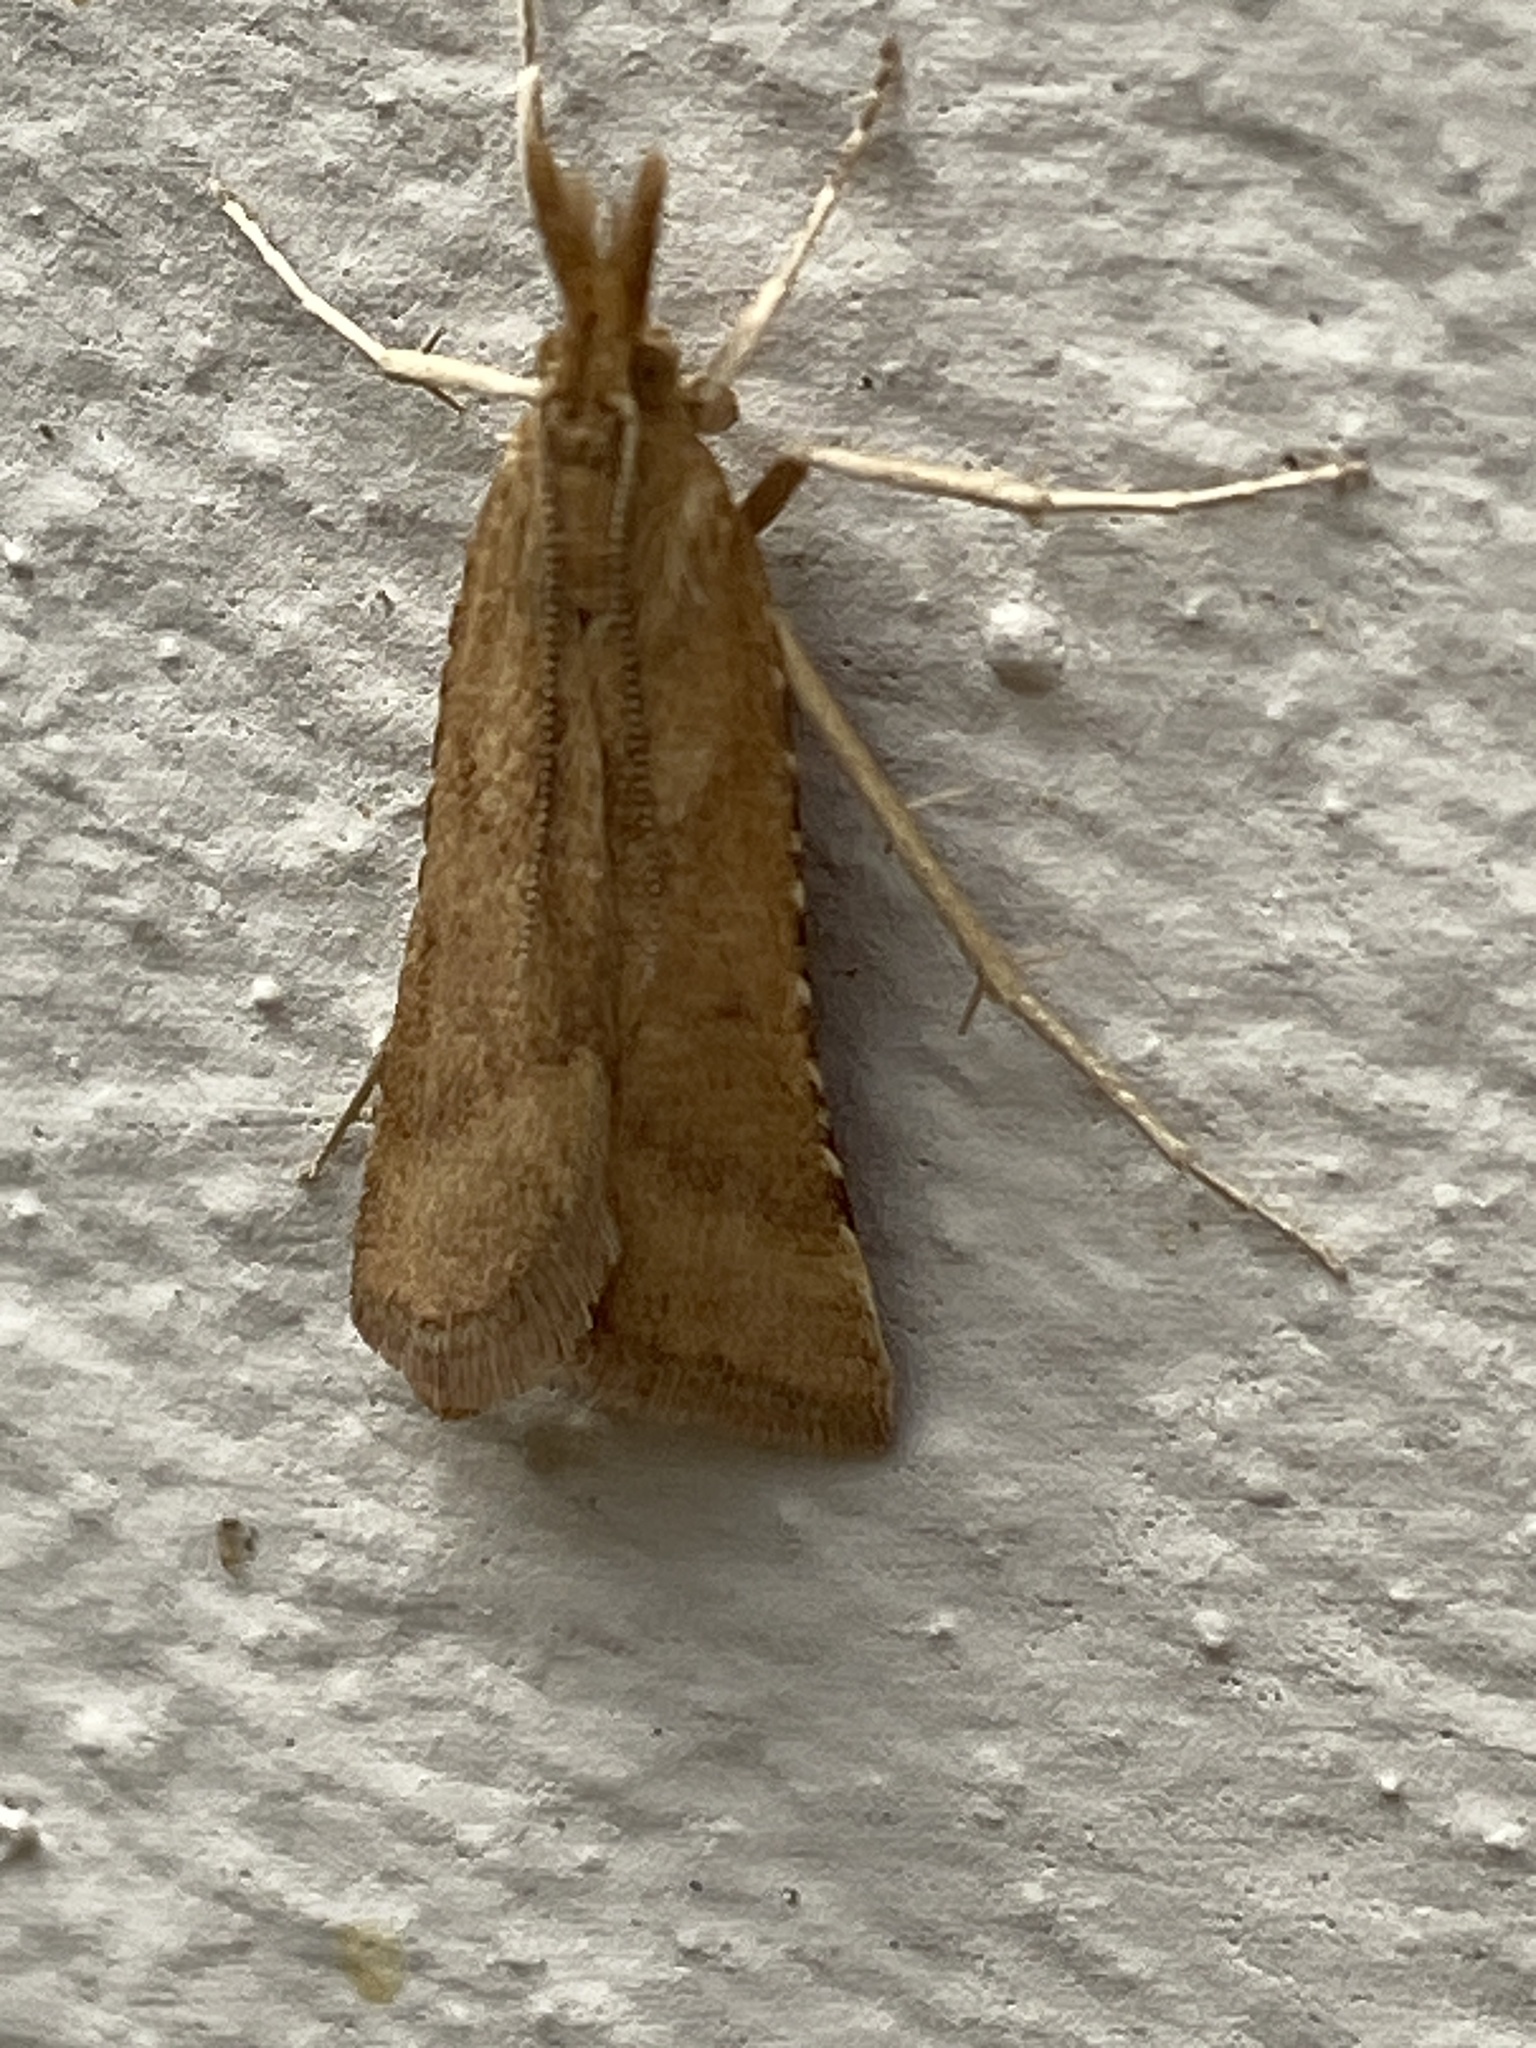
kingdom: Animalia
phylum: Arthropoda
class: Insecta
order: Lepidoptera
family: Pyralidae
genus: Synaphe
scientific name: Synaphe punctalis
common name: Long-legged tabby
